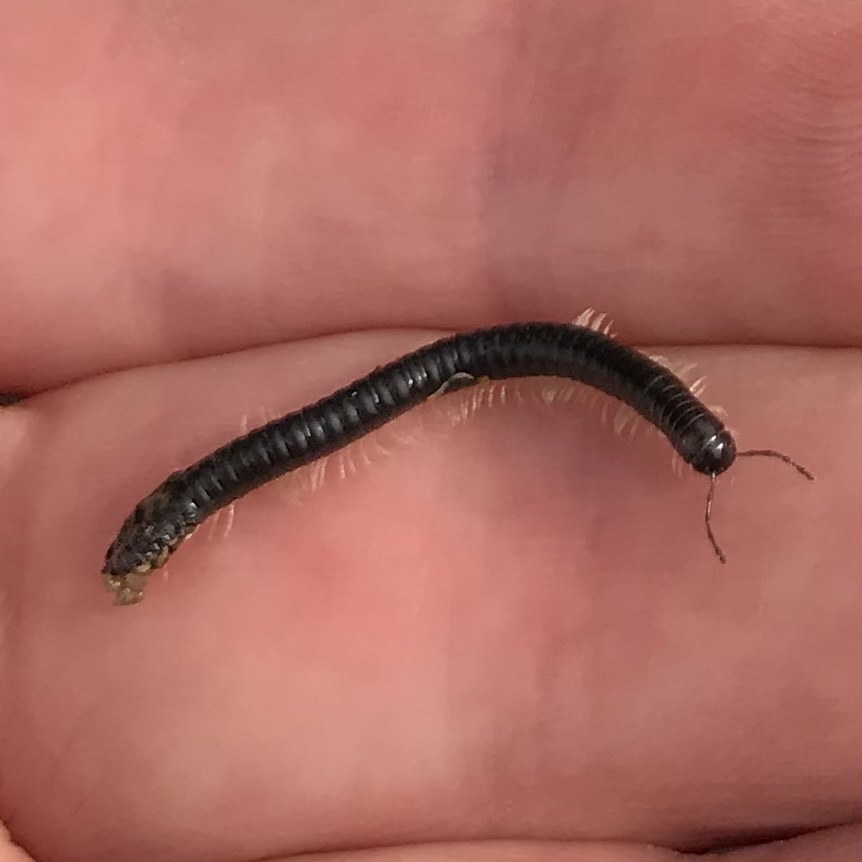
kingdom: Animalia
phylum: Arthropoda
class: Diplopoda
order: Julida
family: Julidae
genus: Tachypodoiulus
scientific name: Tachypodoiulus niger
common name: White-legged snake millipede
